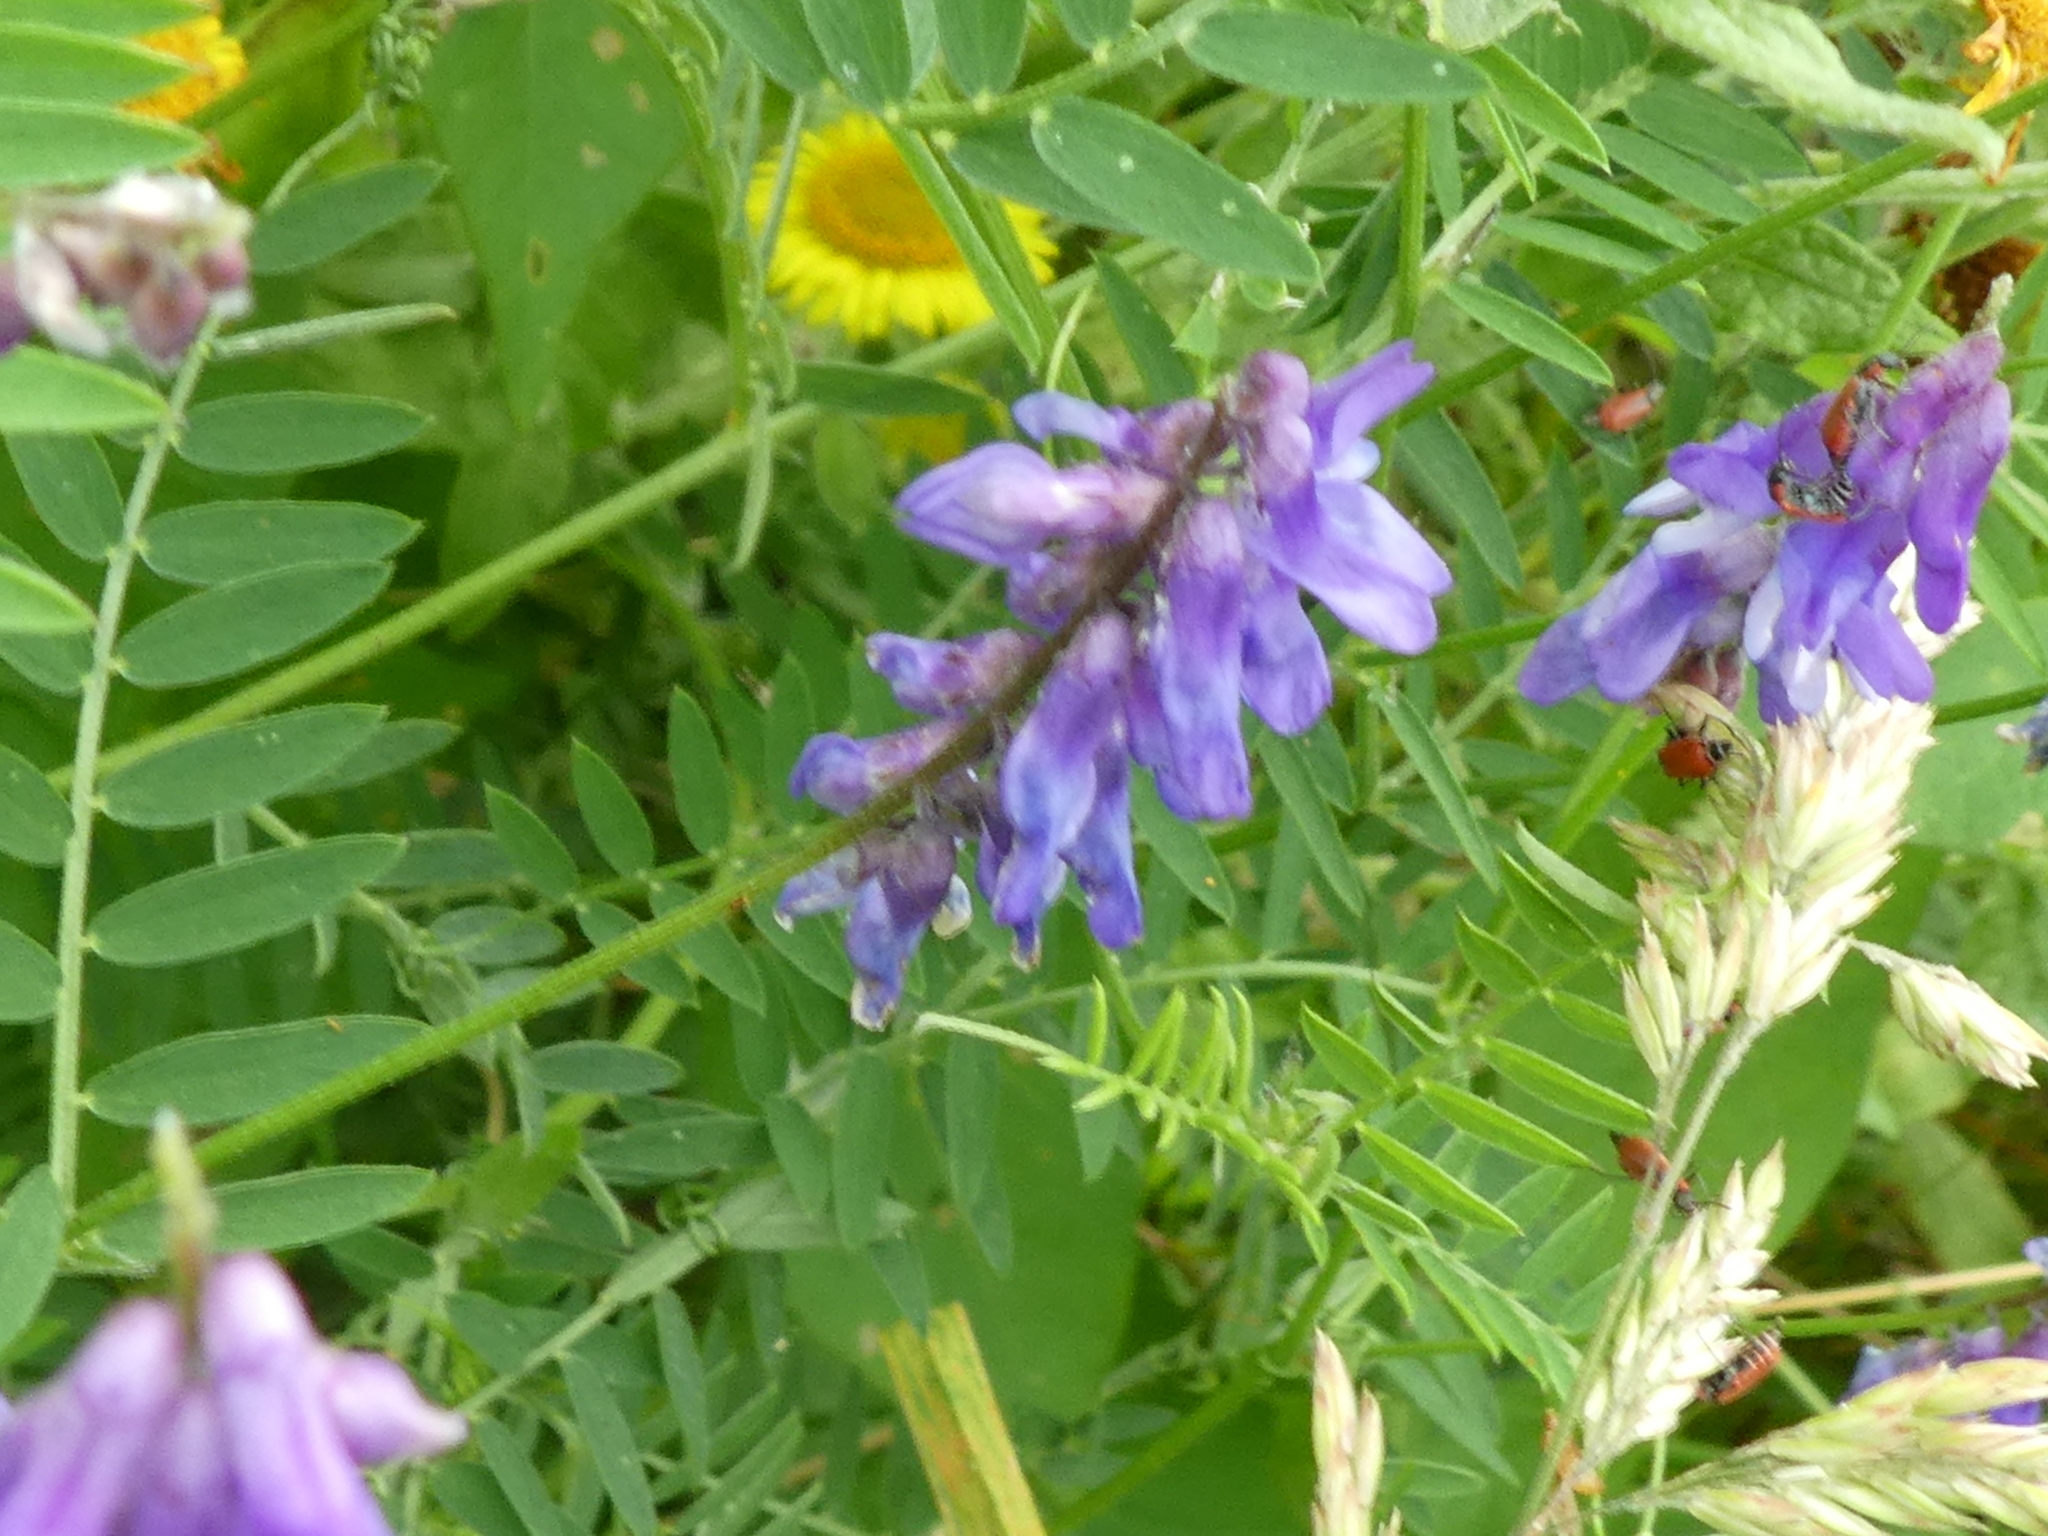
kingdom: Plantae
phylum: Tracheophyta
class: Magnoliopsida
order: Fabales
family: Fabaceae
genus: Vicia
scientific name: Vicia cracca
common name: Bird vetch
